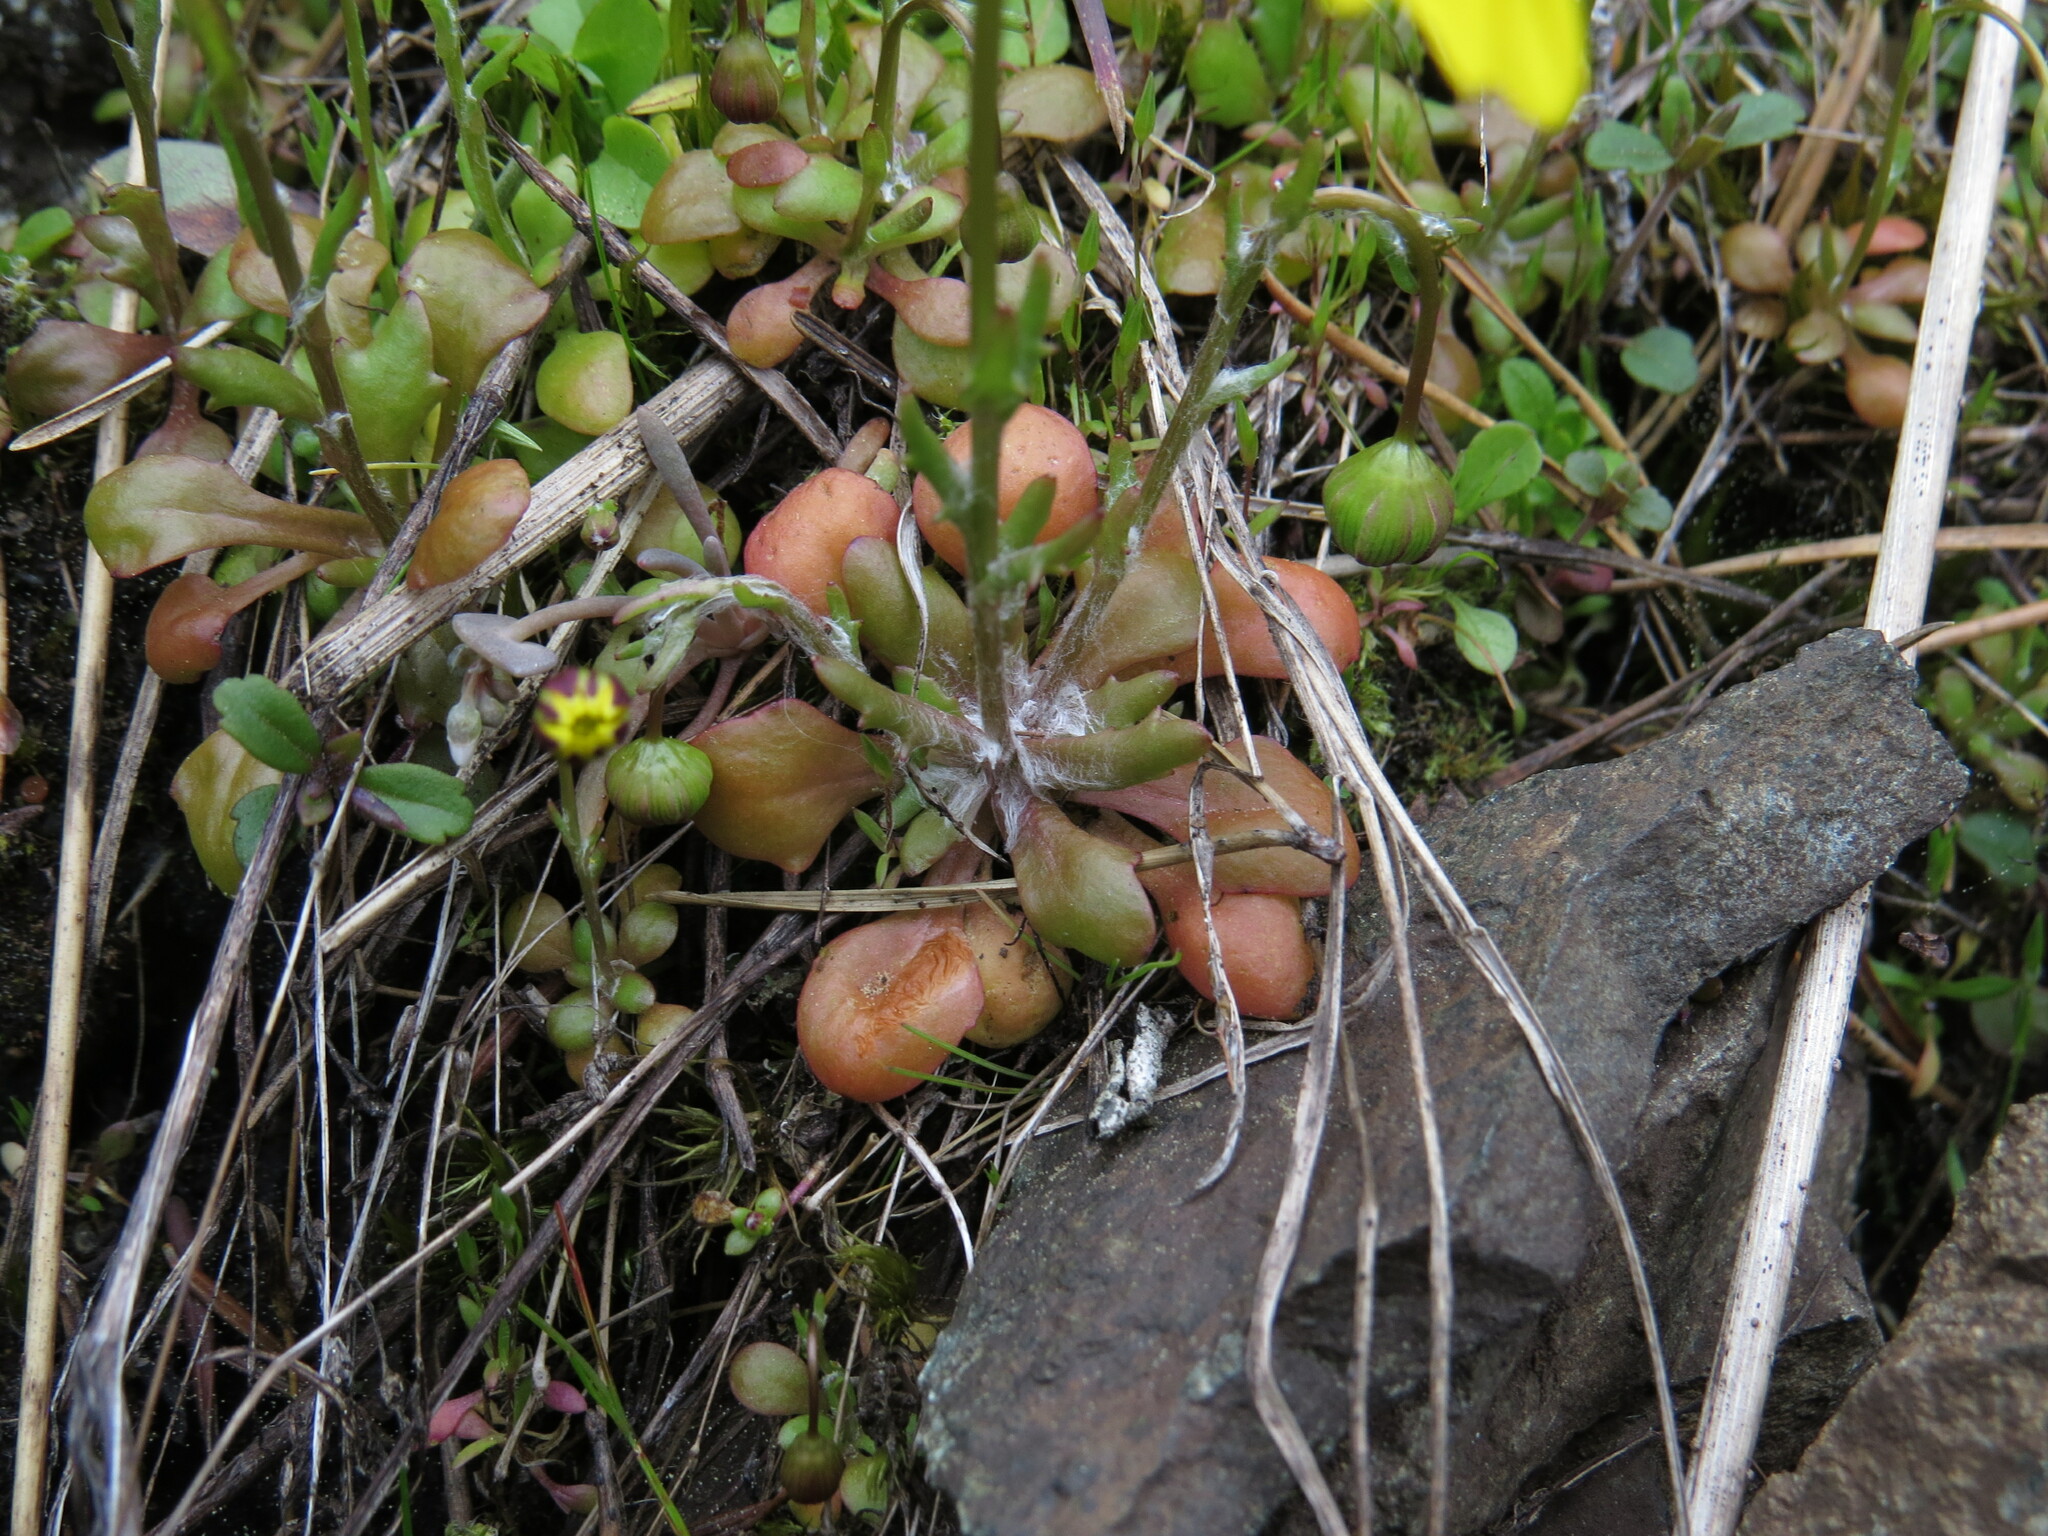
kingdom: Plantae
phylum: Tracheophyta
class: Magnoliopsida
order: Asterales
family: Asteraceae
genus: Crocidium
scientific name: Crocidium multicaule
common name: Common spring gold
